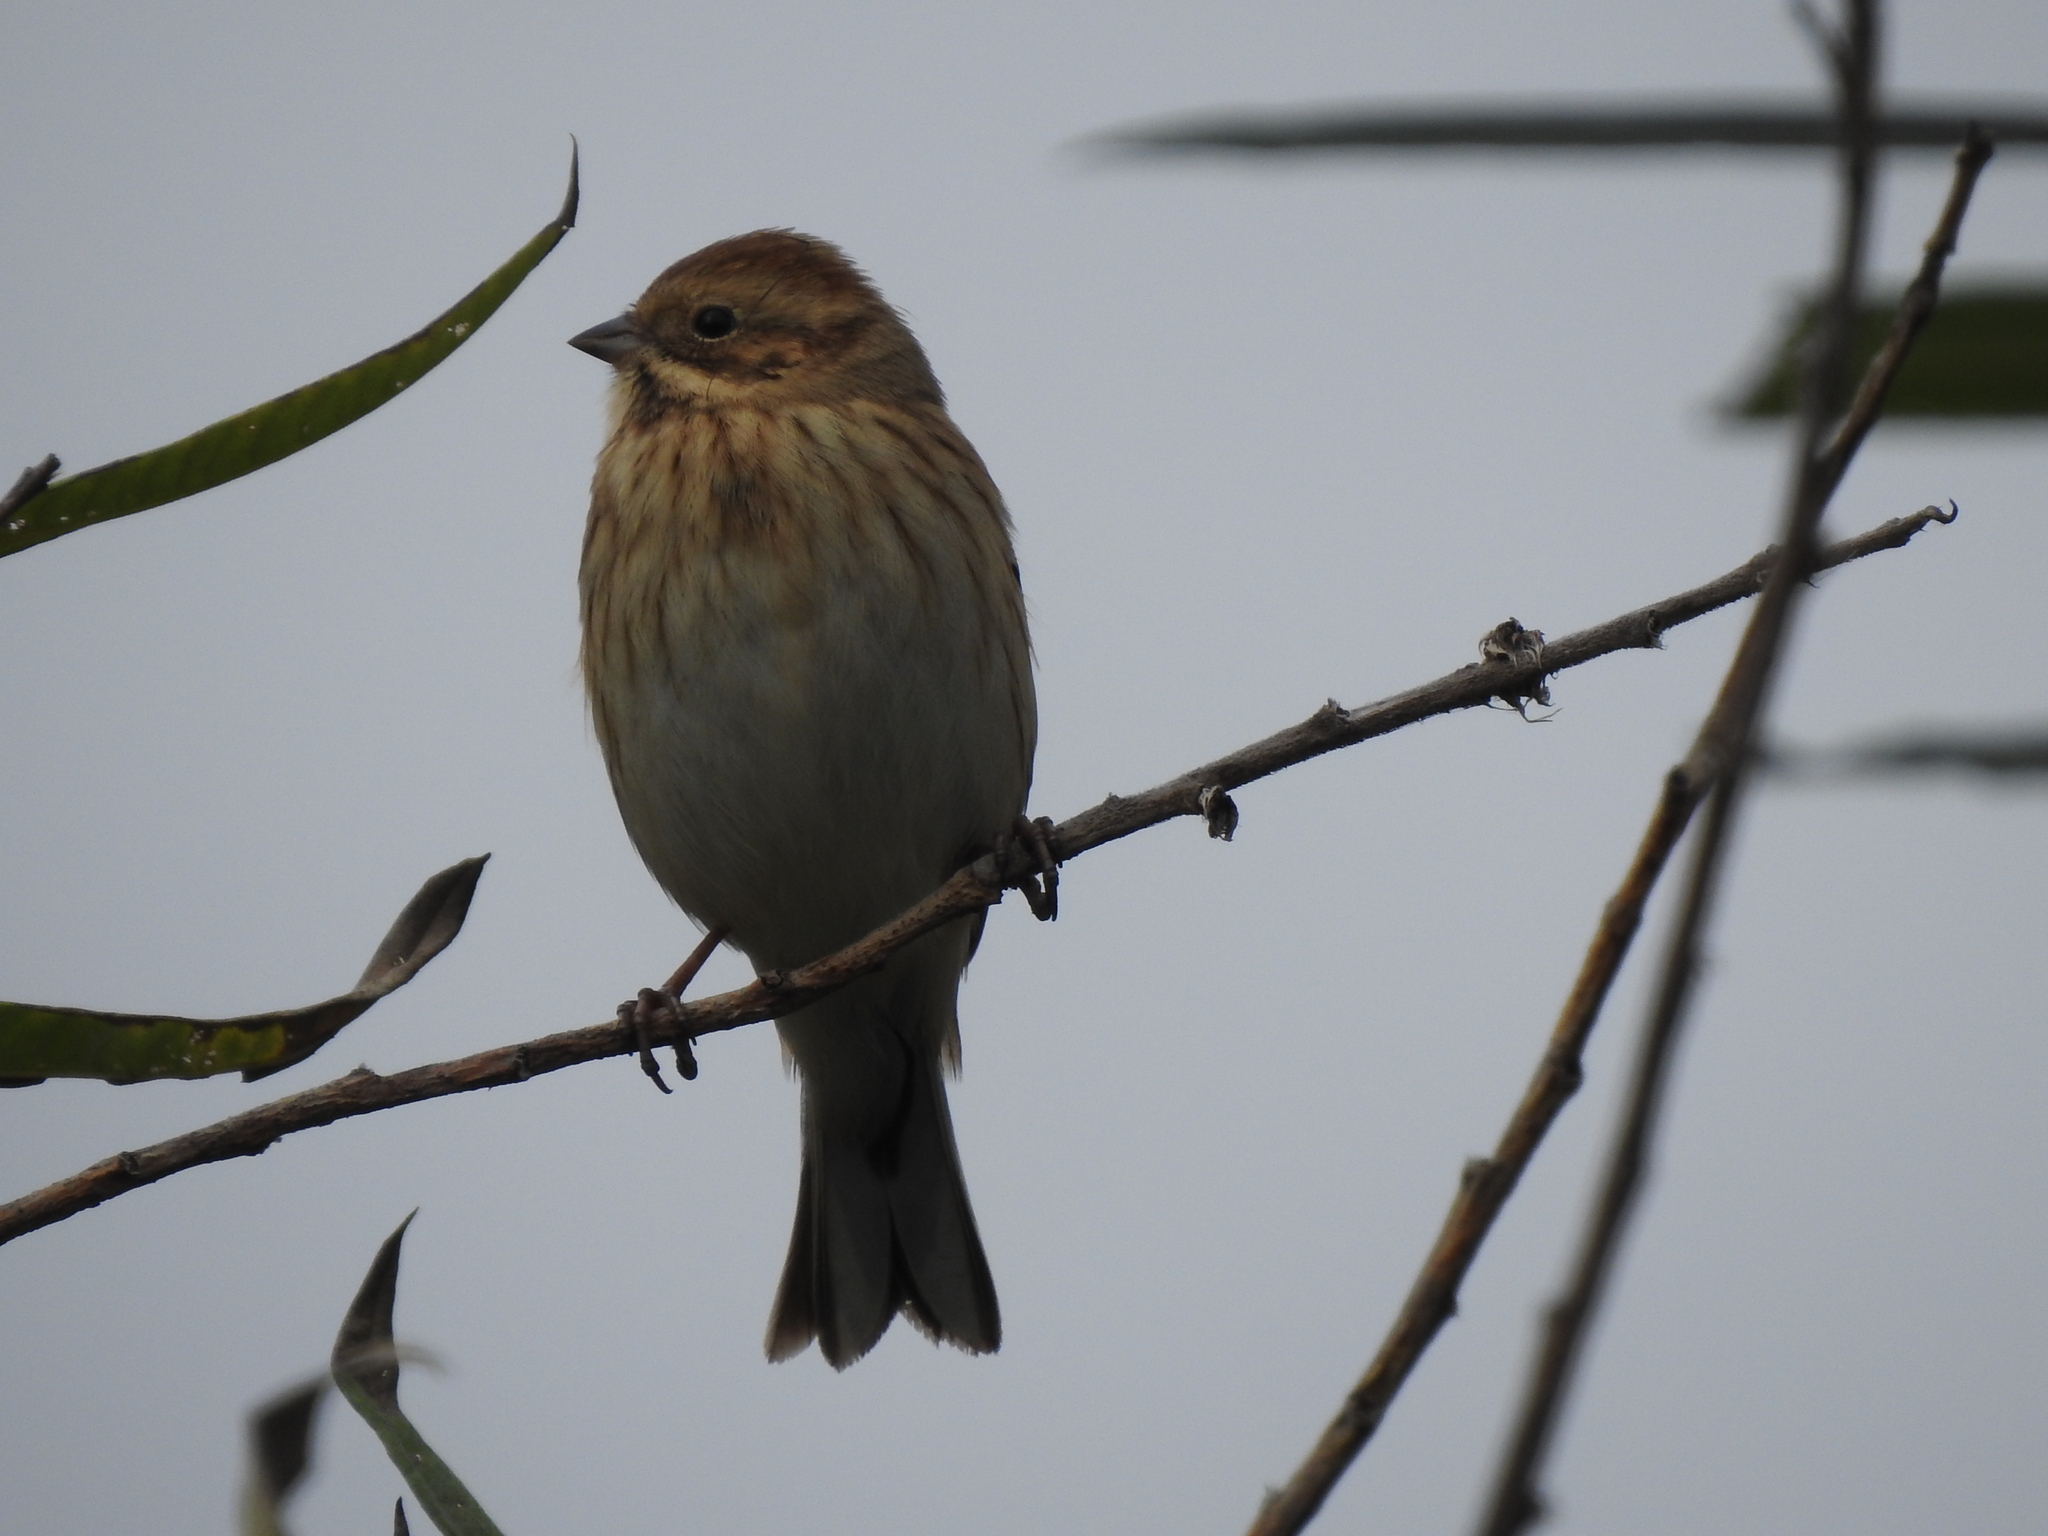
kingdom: Animalia
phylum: Chordata
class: Aves
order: Passeriformes
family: Emberizidae
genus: Emberiza
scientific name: Emberiza schoeniclus
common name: Reed bunting
